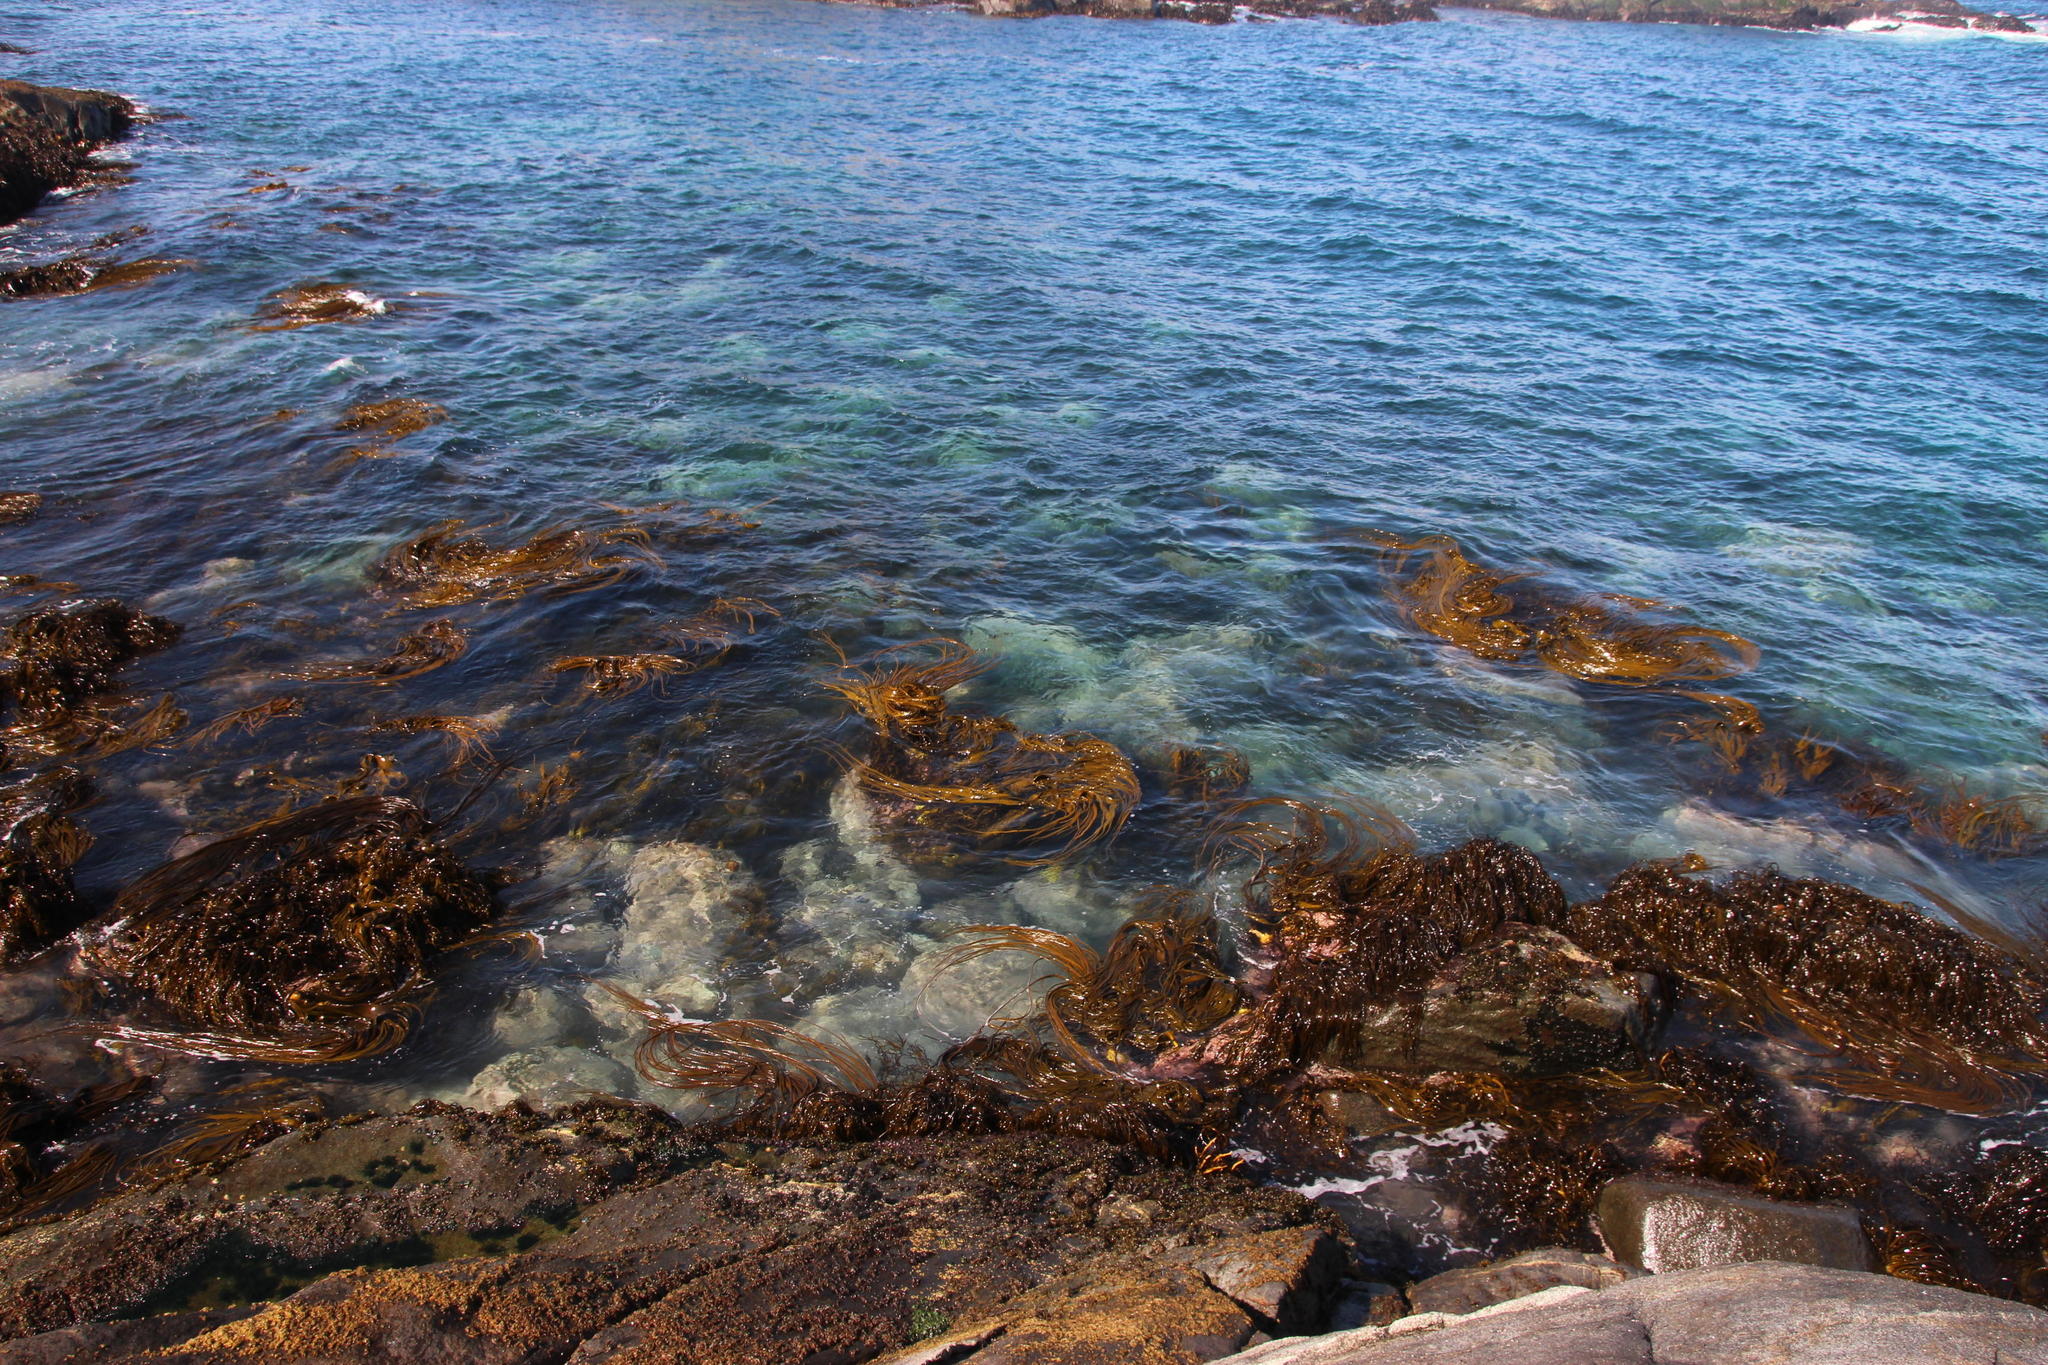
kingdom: Chromista
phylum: Ochrophyta
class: Phaeophyceae
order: Fucales
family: Durvillaeaceae
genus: Durvillaea
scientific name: Durvillaea
